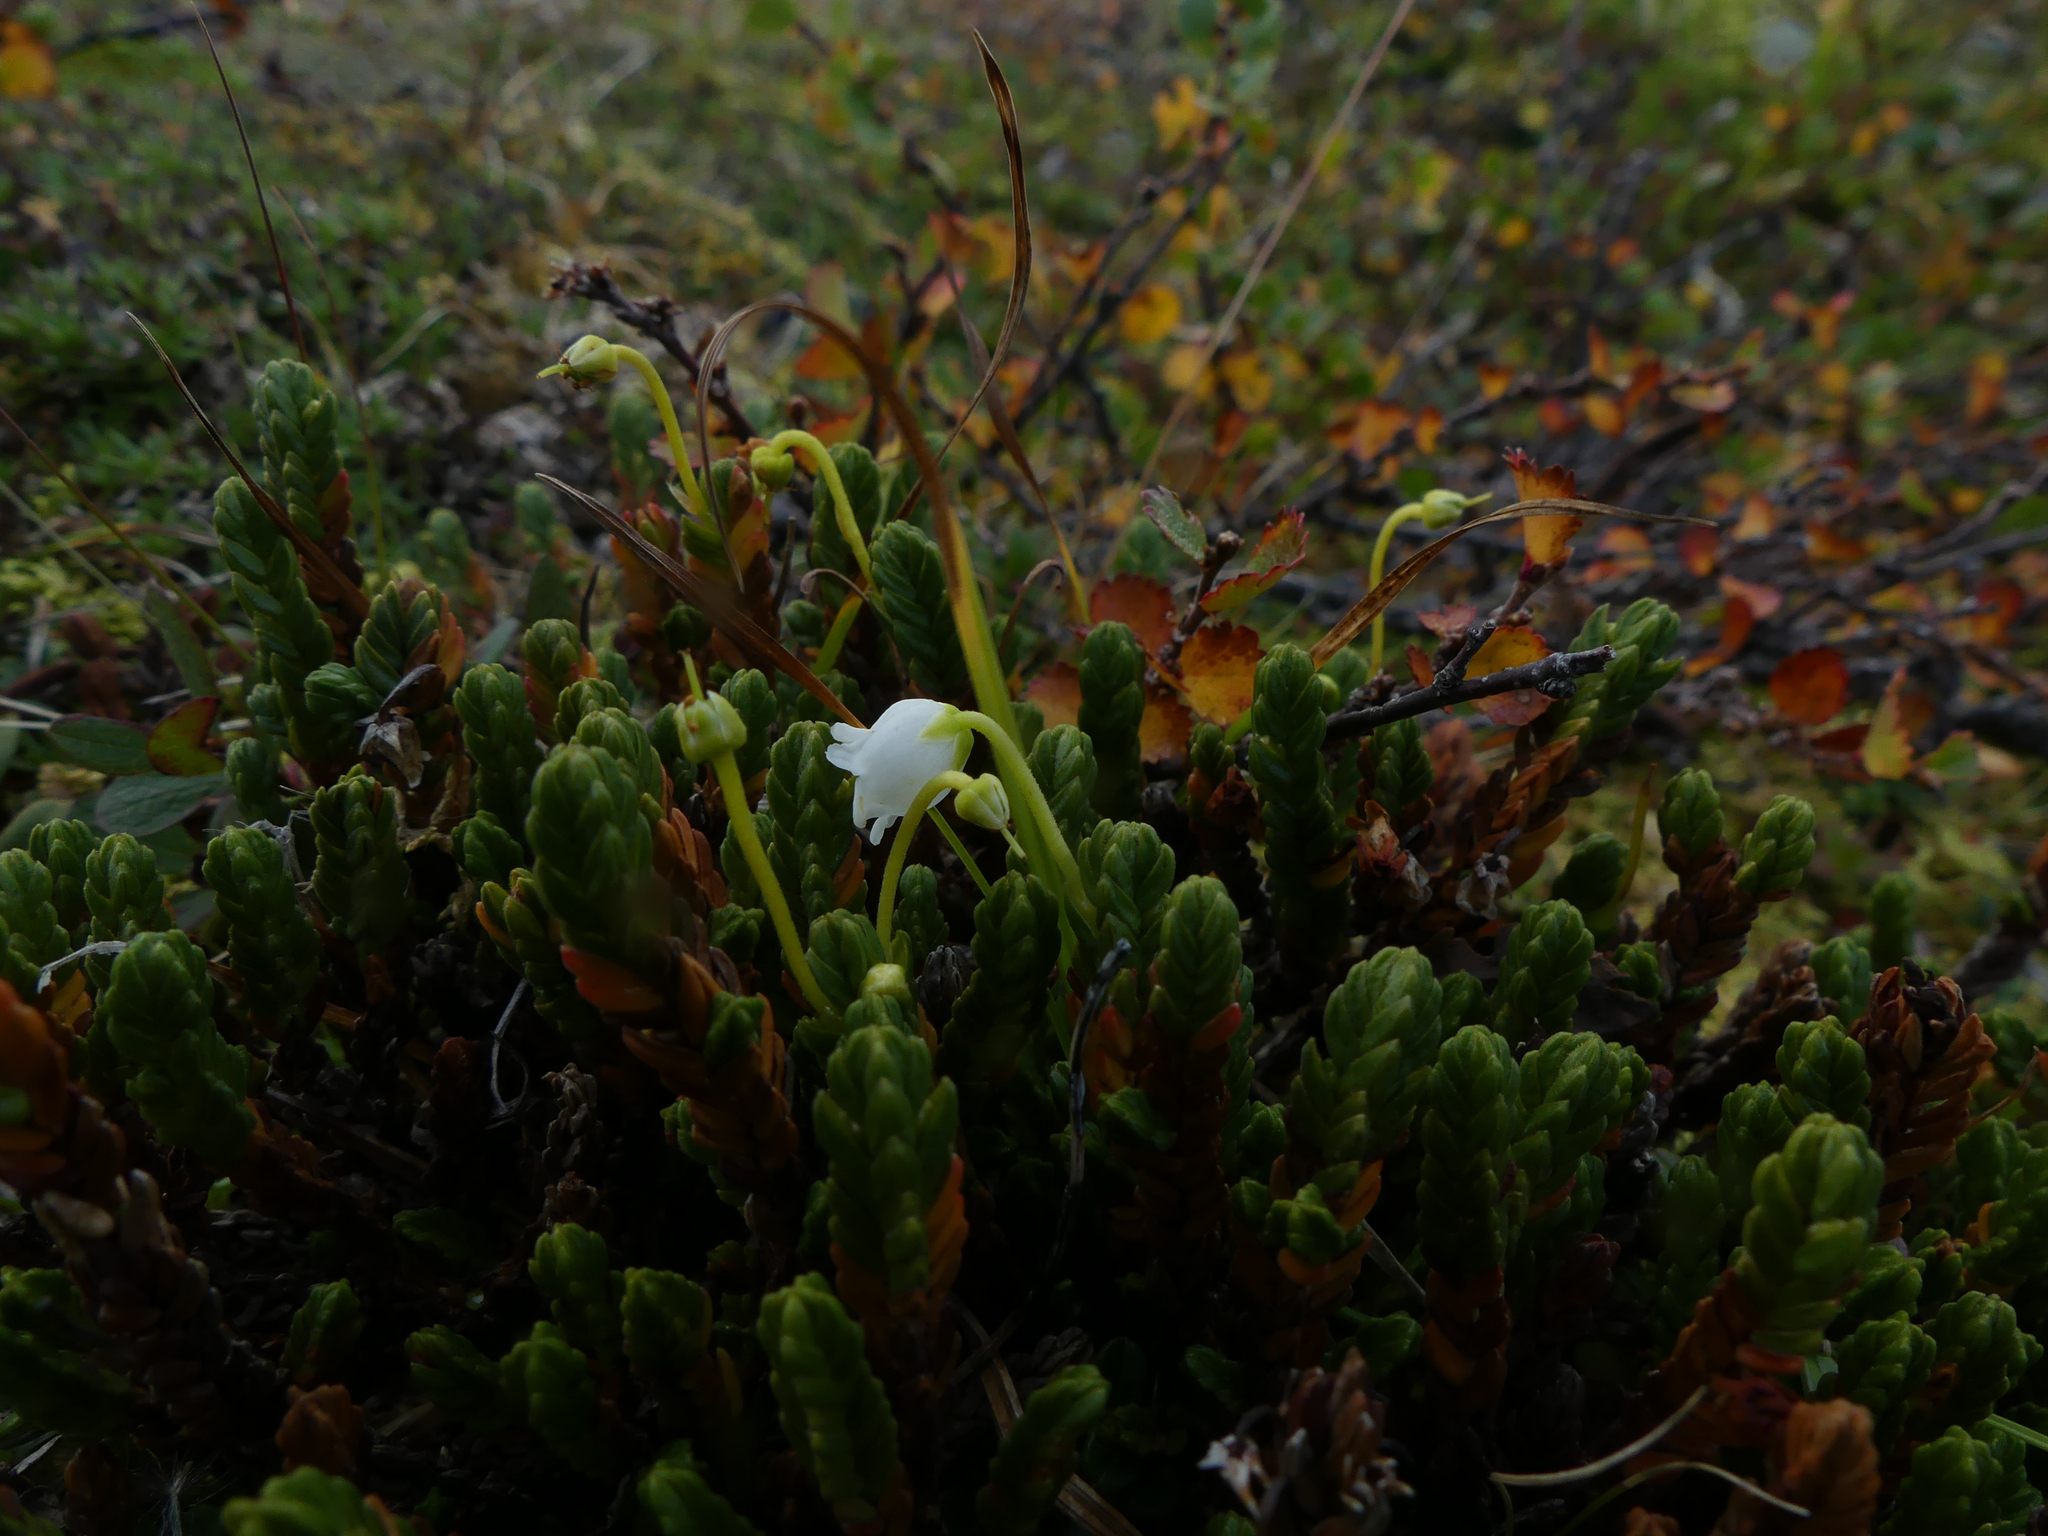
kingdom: Plantae
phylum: Tracheophyta
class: Magnoliopsida
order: Ericales
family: Ericaceae
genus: Cassiope
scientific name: Cassiope tetragona
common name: Arctic bell heather
